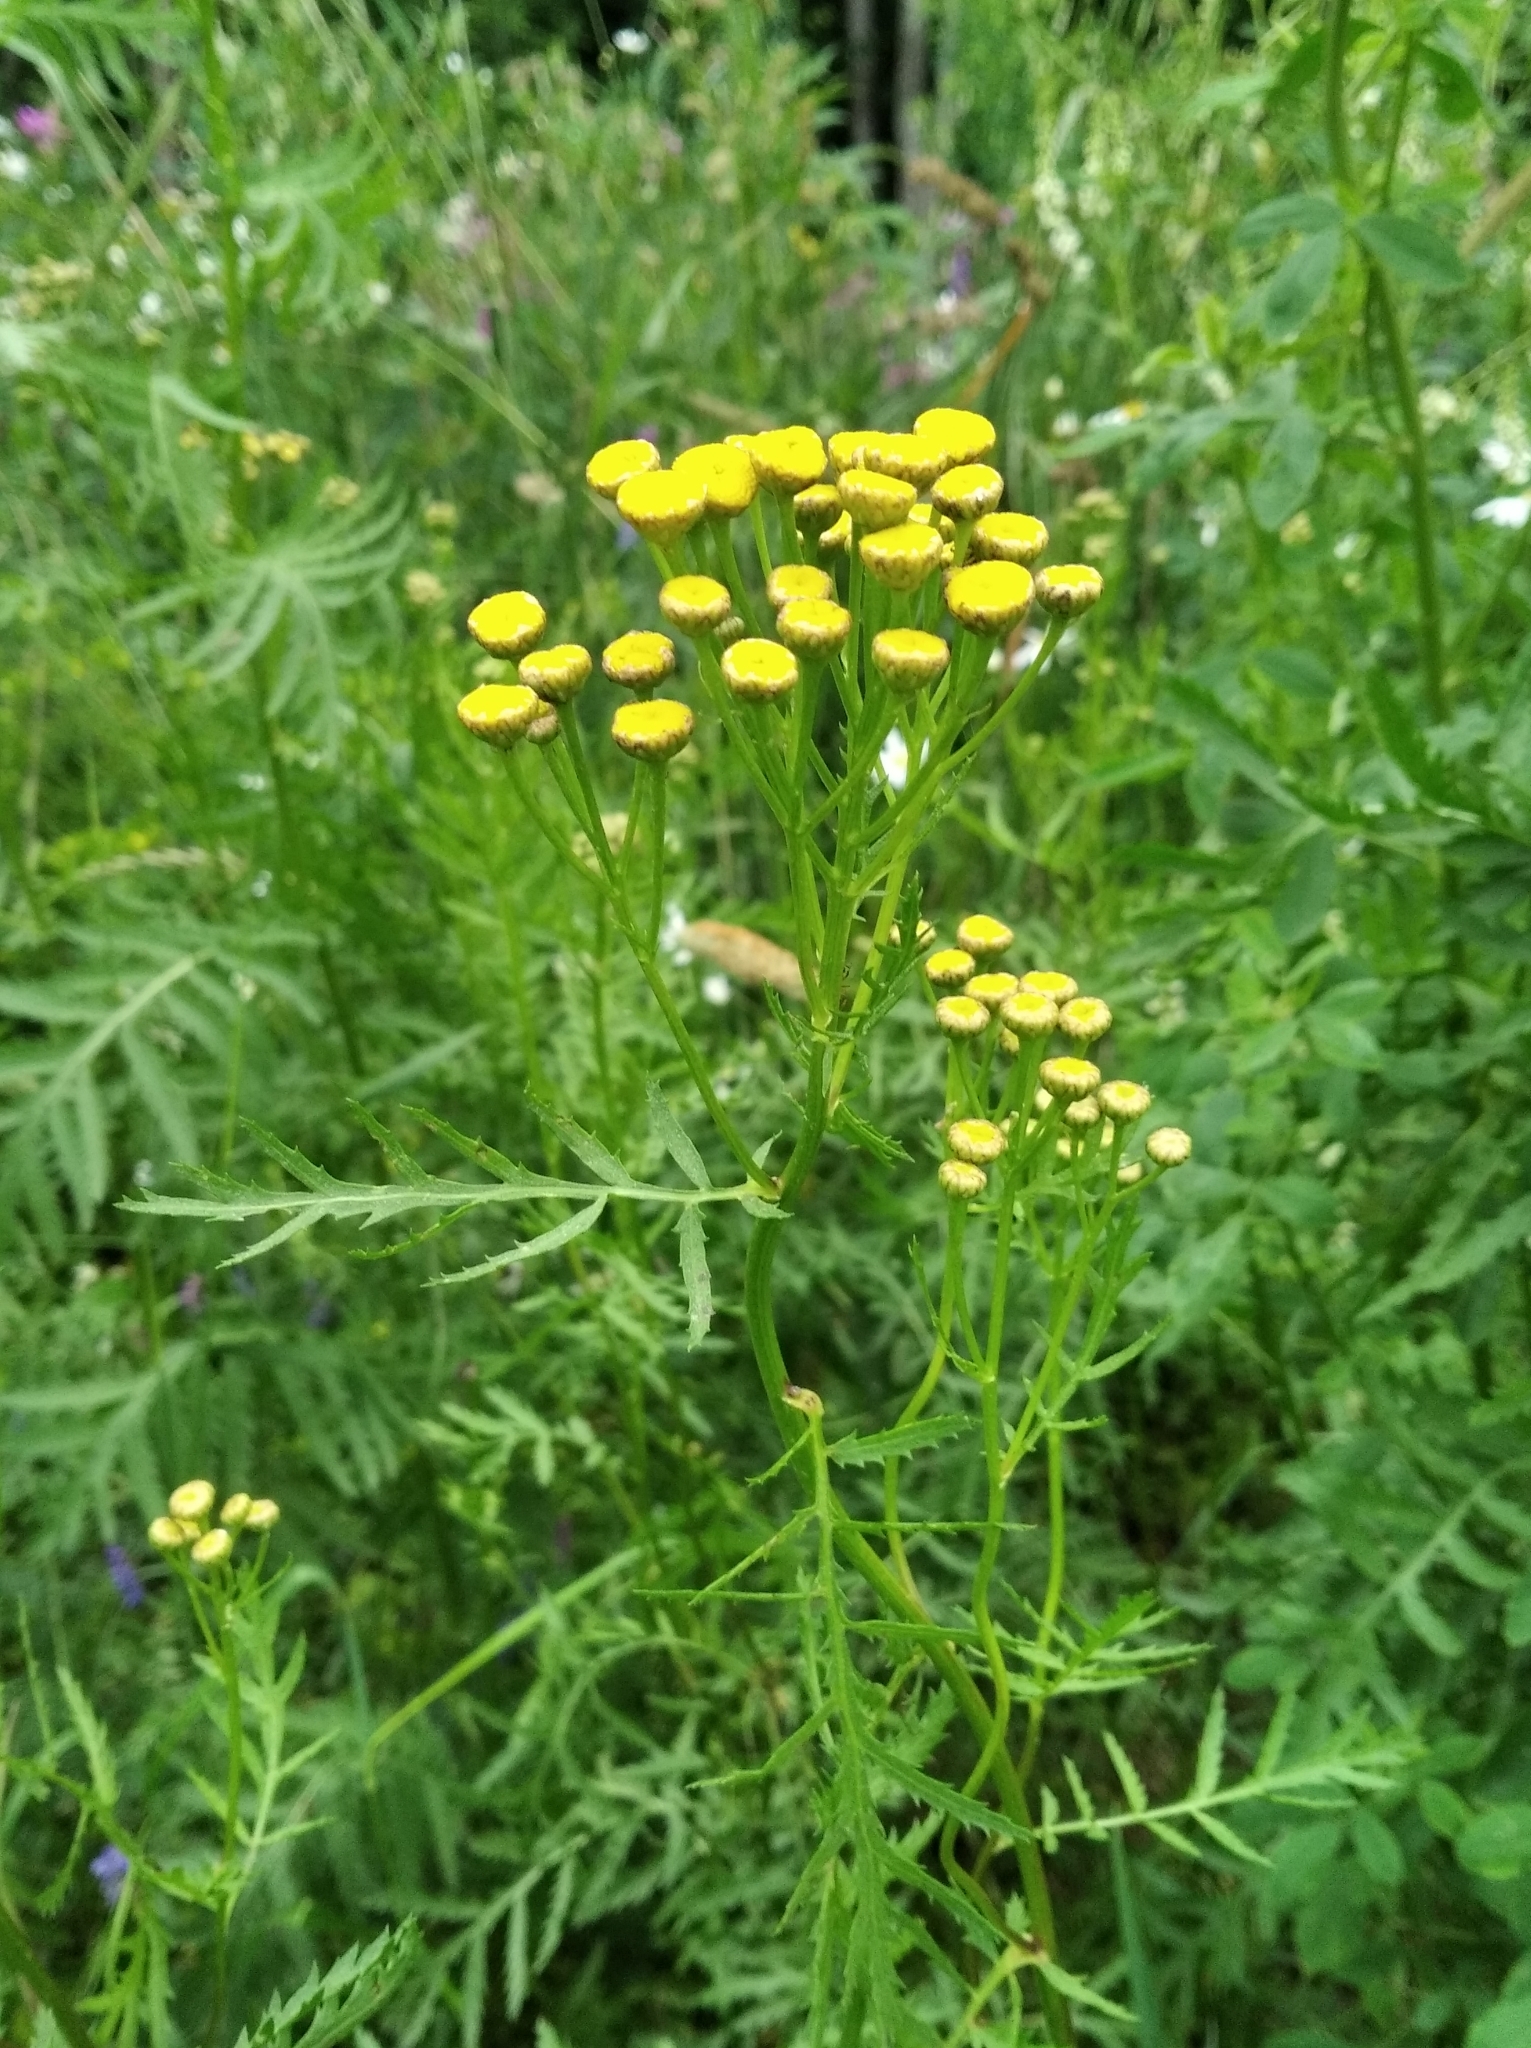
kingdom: Plantae
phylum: Tracheophyta
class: Magnoliopsida
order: Asterales
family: Asteraceae
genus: Tanacetum
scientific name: Tanacetum vulgare
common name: Common tansy
